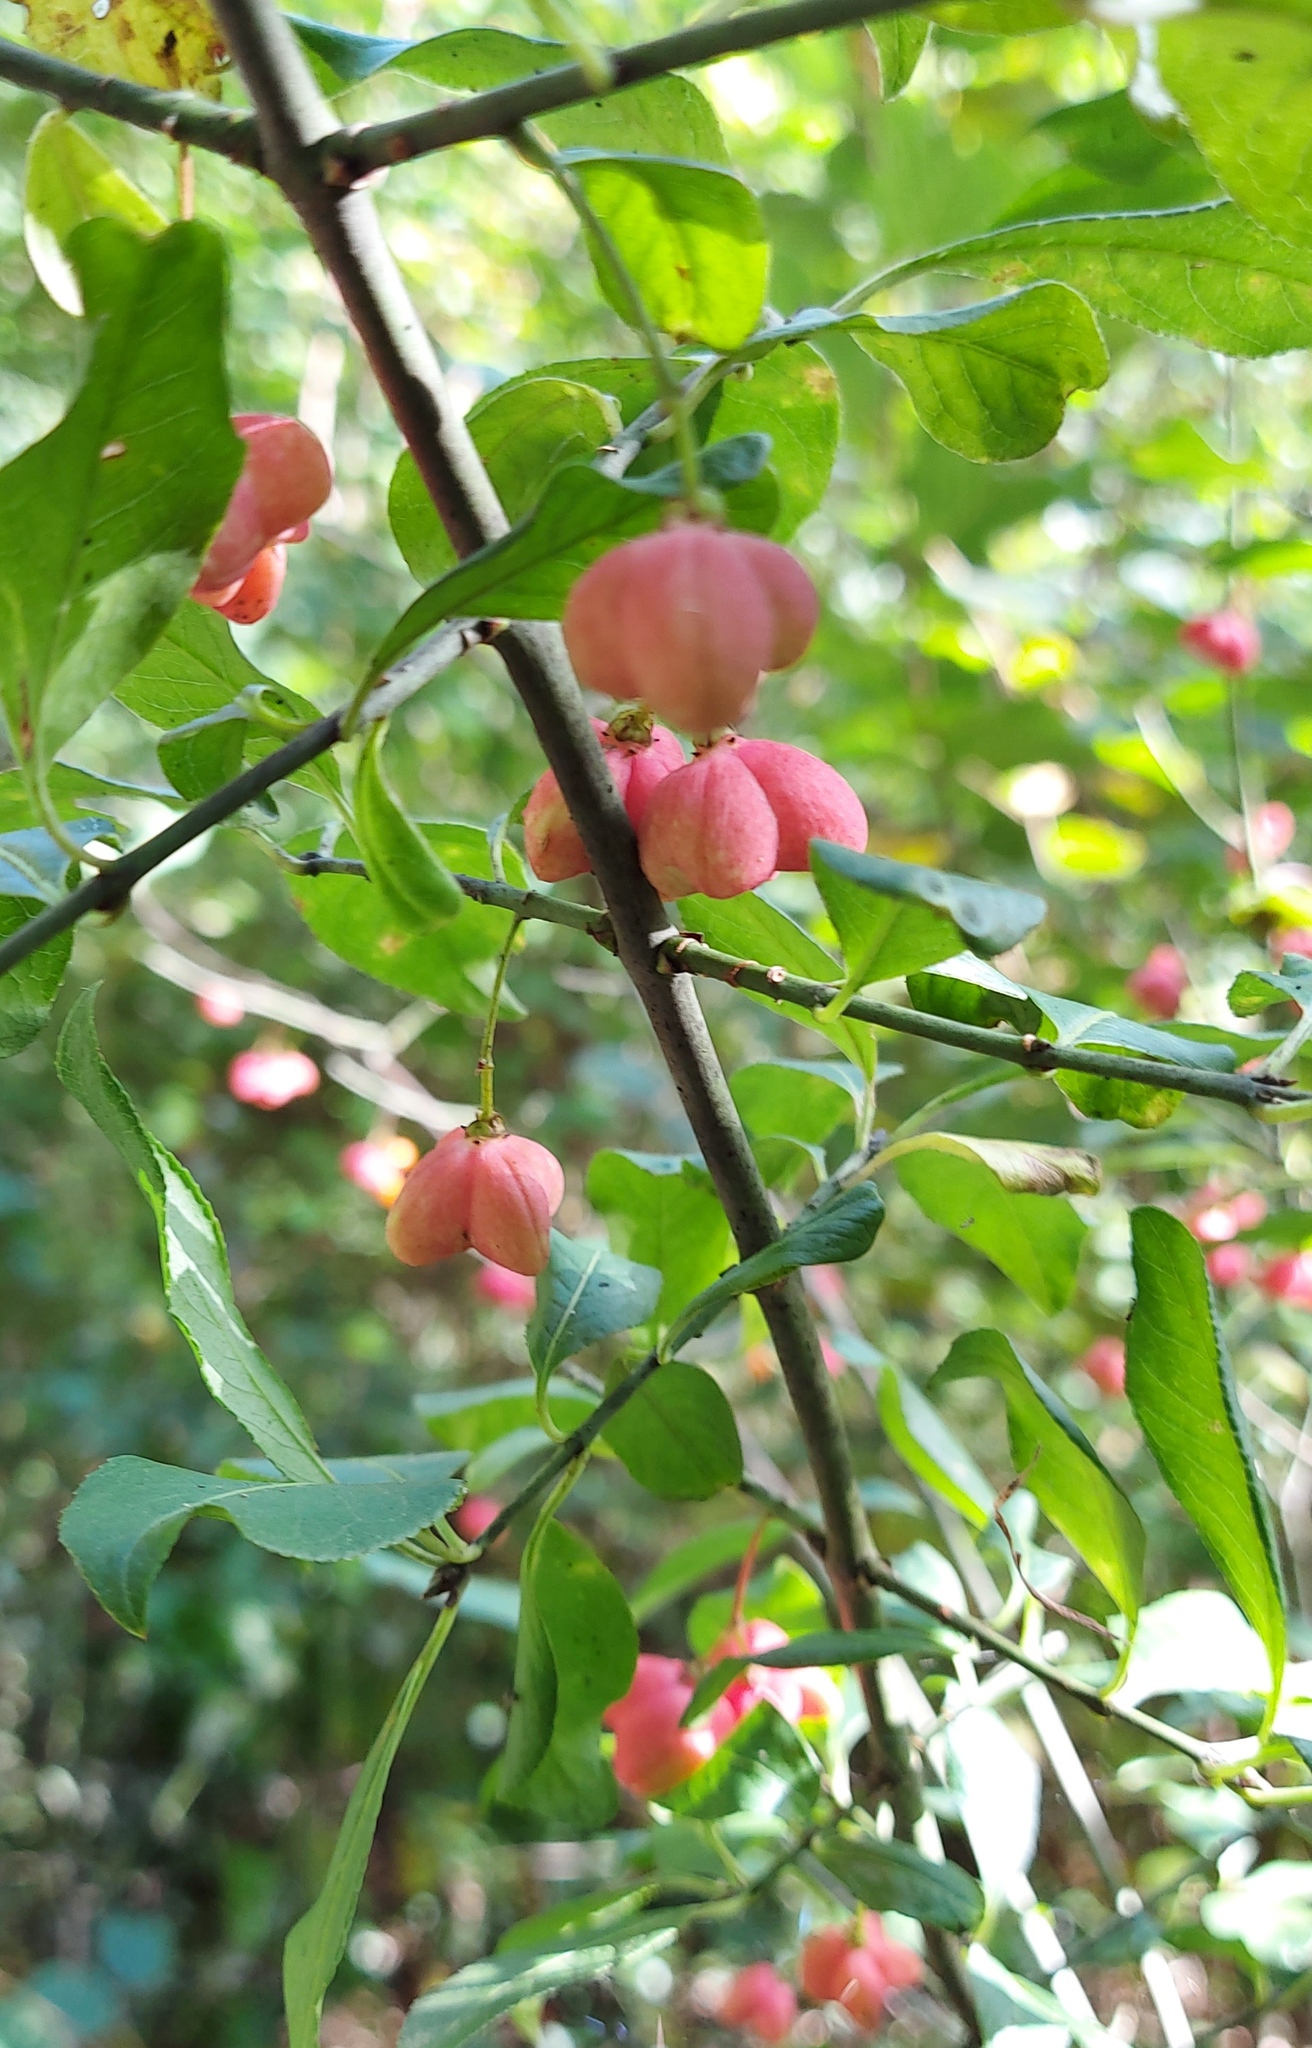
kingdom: Plantae
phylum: Tracheophyta
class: Magnoliopsida
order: Celastrales
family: Celastraceae
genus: Euonymus
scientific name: Euonymus europaeus
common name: Spindle
